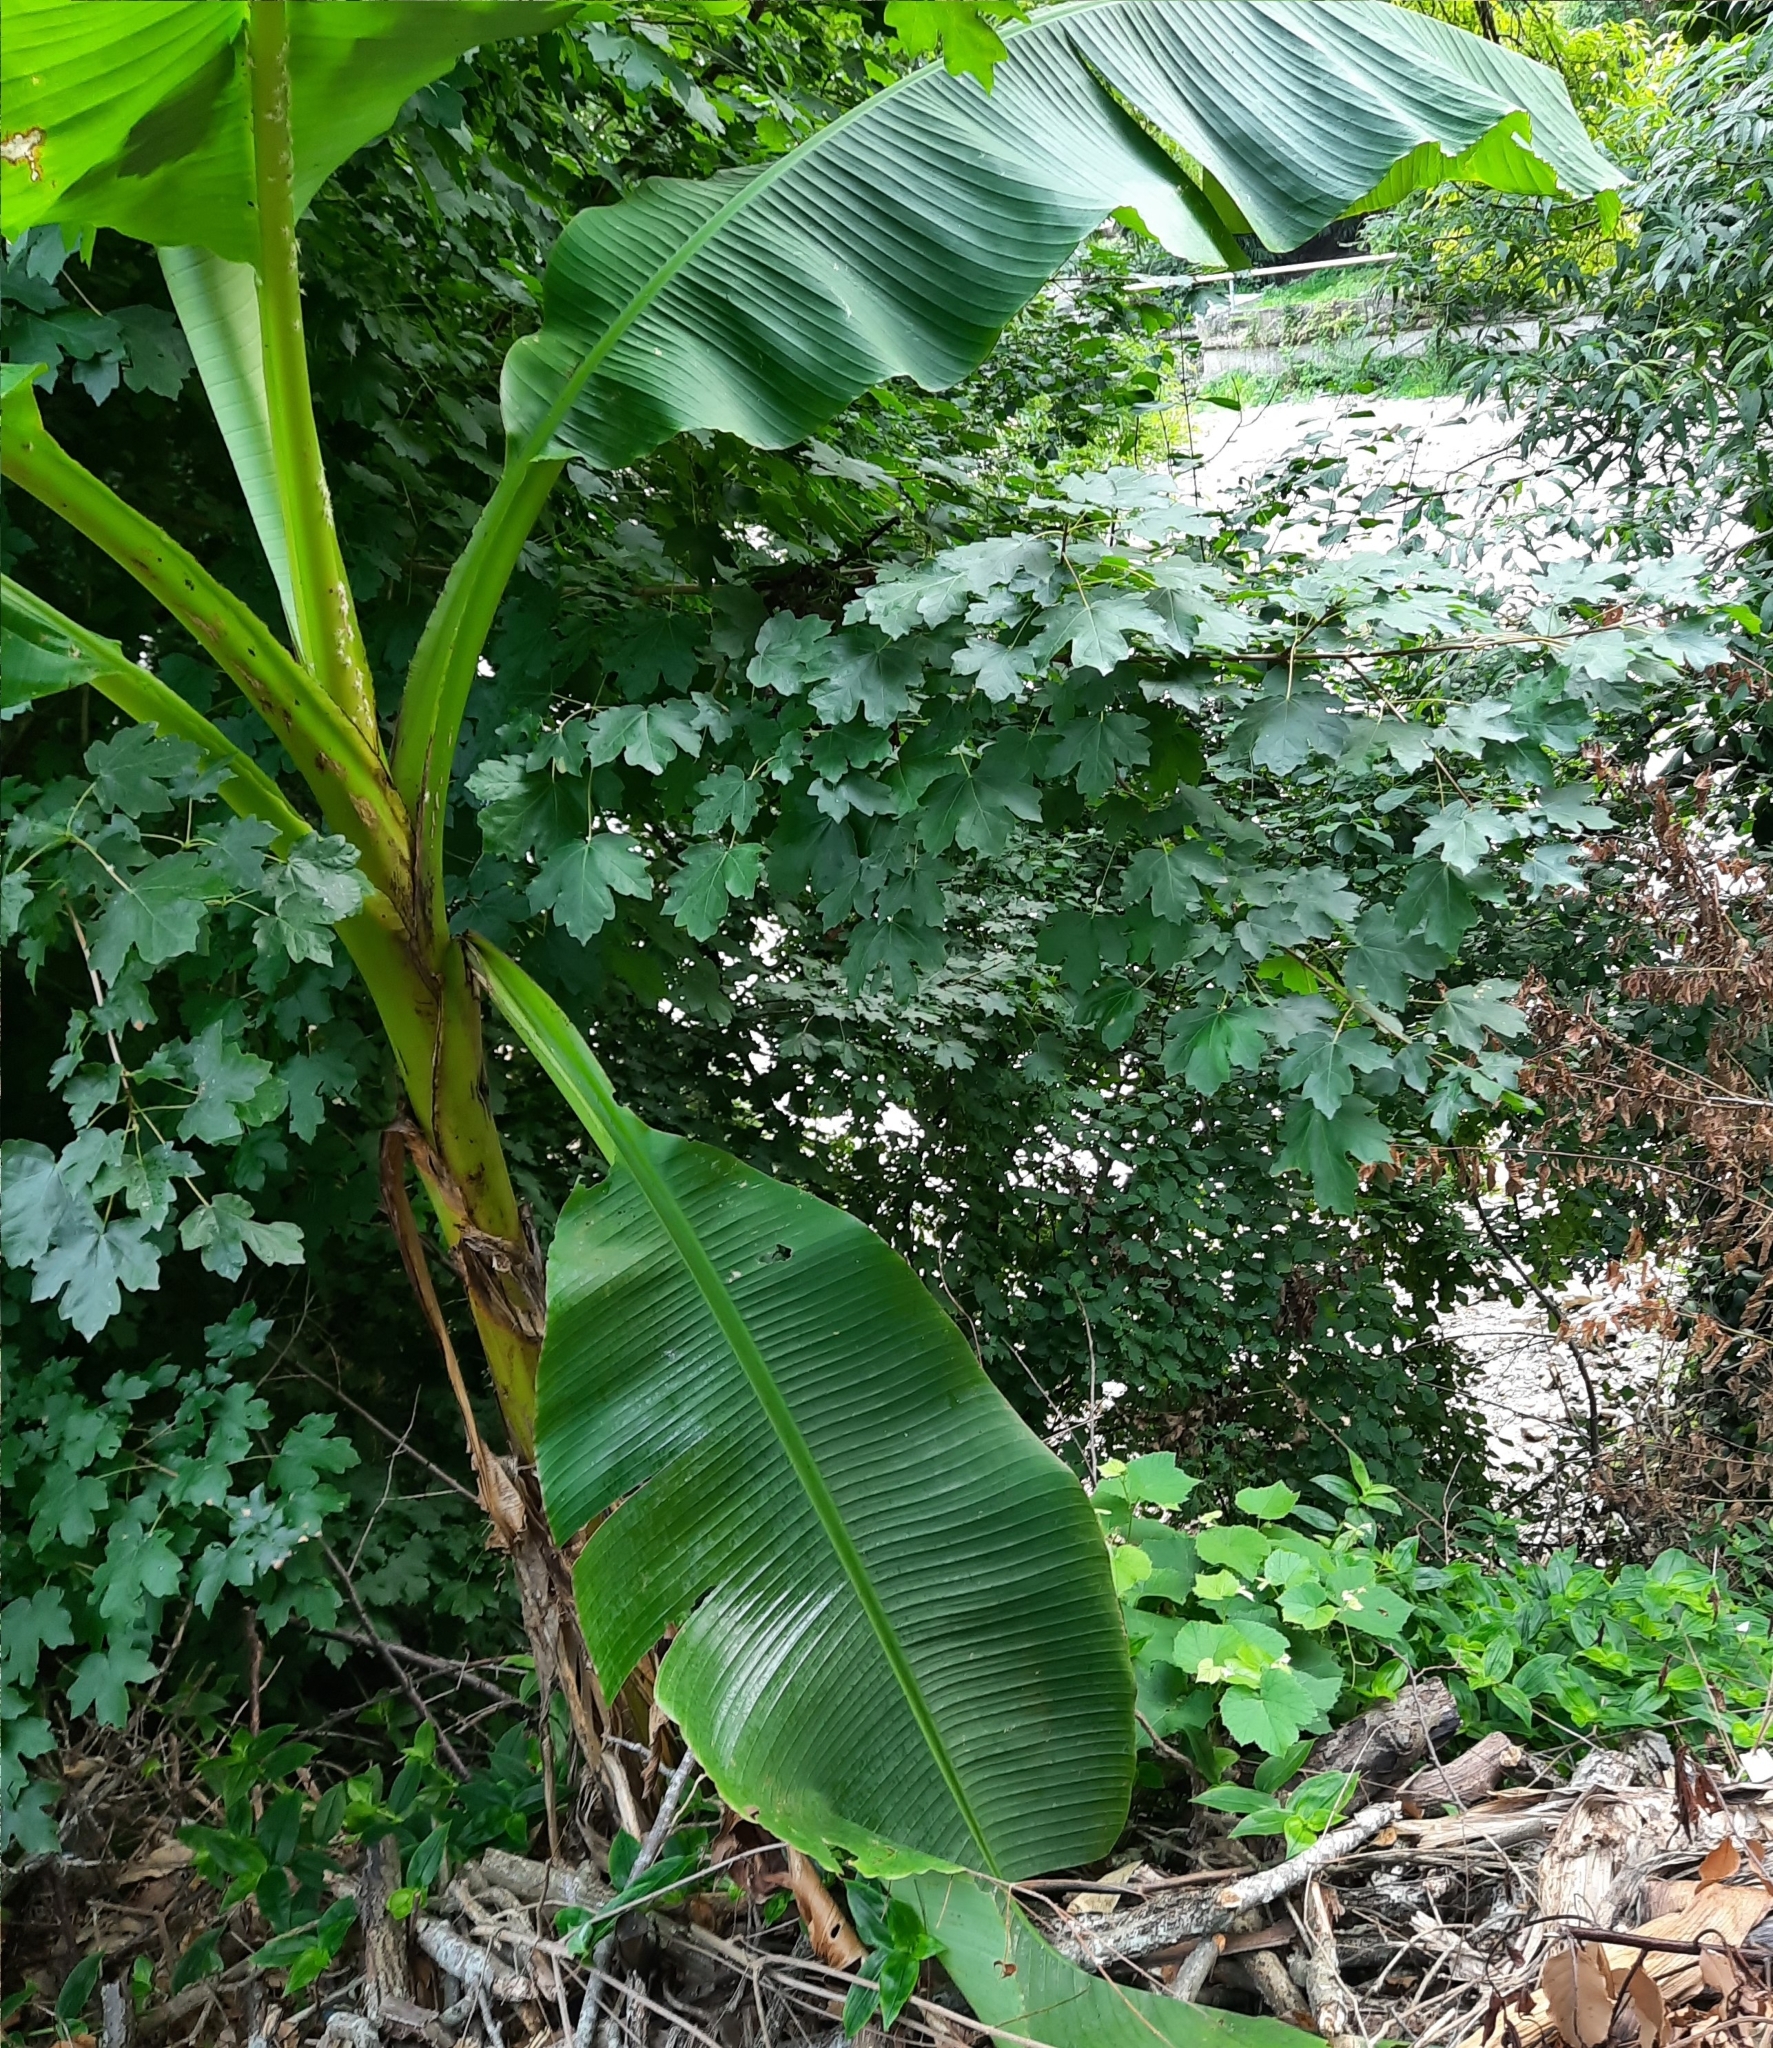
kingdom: Plantae
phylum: Tracheophyta
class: Liliopsida
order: Zingiberales
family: Musaceae
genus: Musa
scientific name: Musa basjoo
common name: Japanese fibre banana
